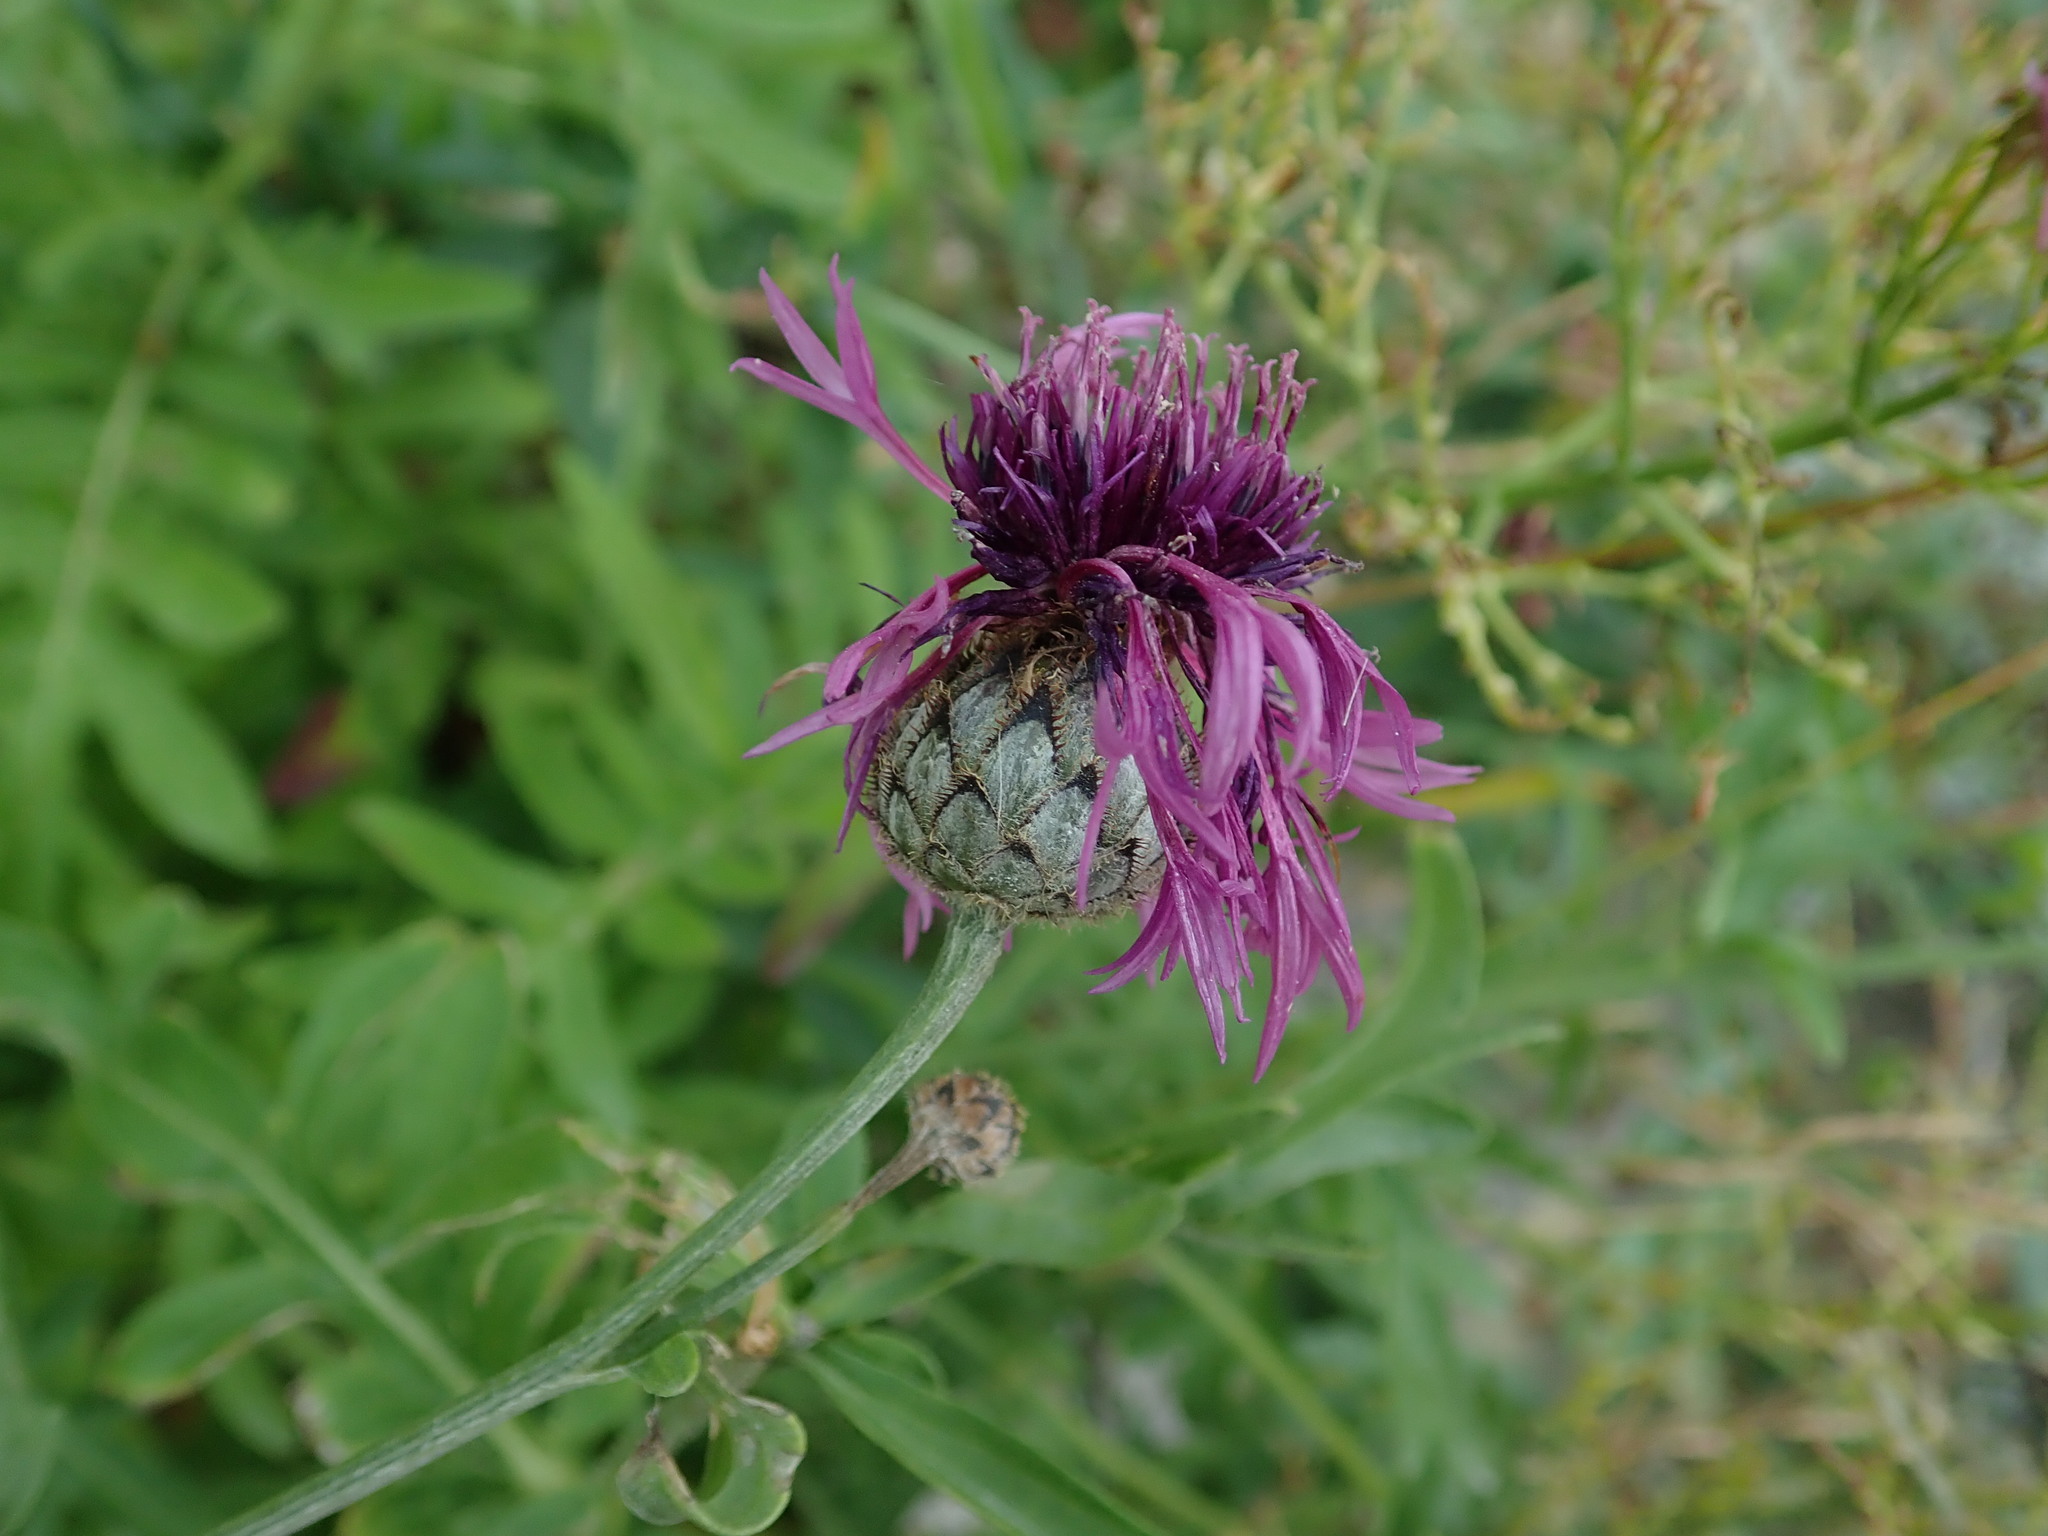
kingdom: Plantae
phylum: Tracheophyta
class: Magnoliopsida
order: Asterales
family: Asteraceae
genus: Centaurea
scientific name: Centaurea scabiosa
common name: Greater knapweed
